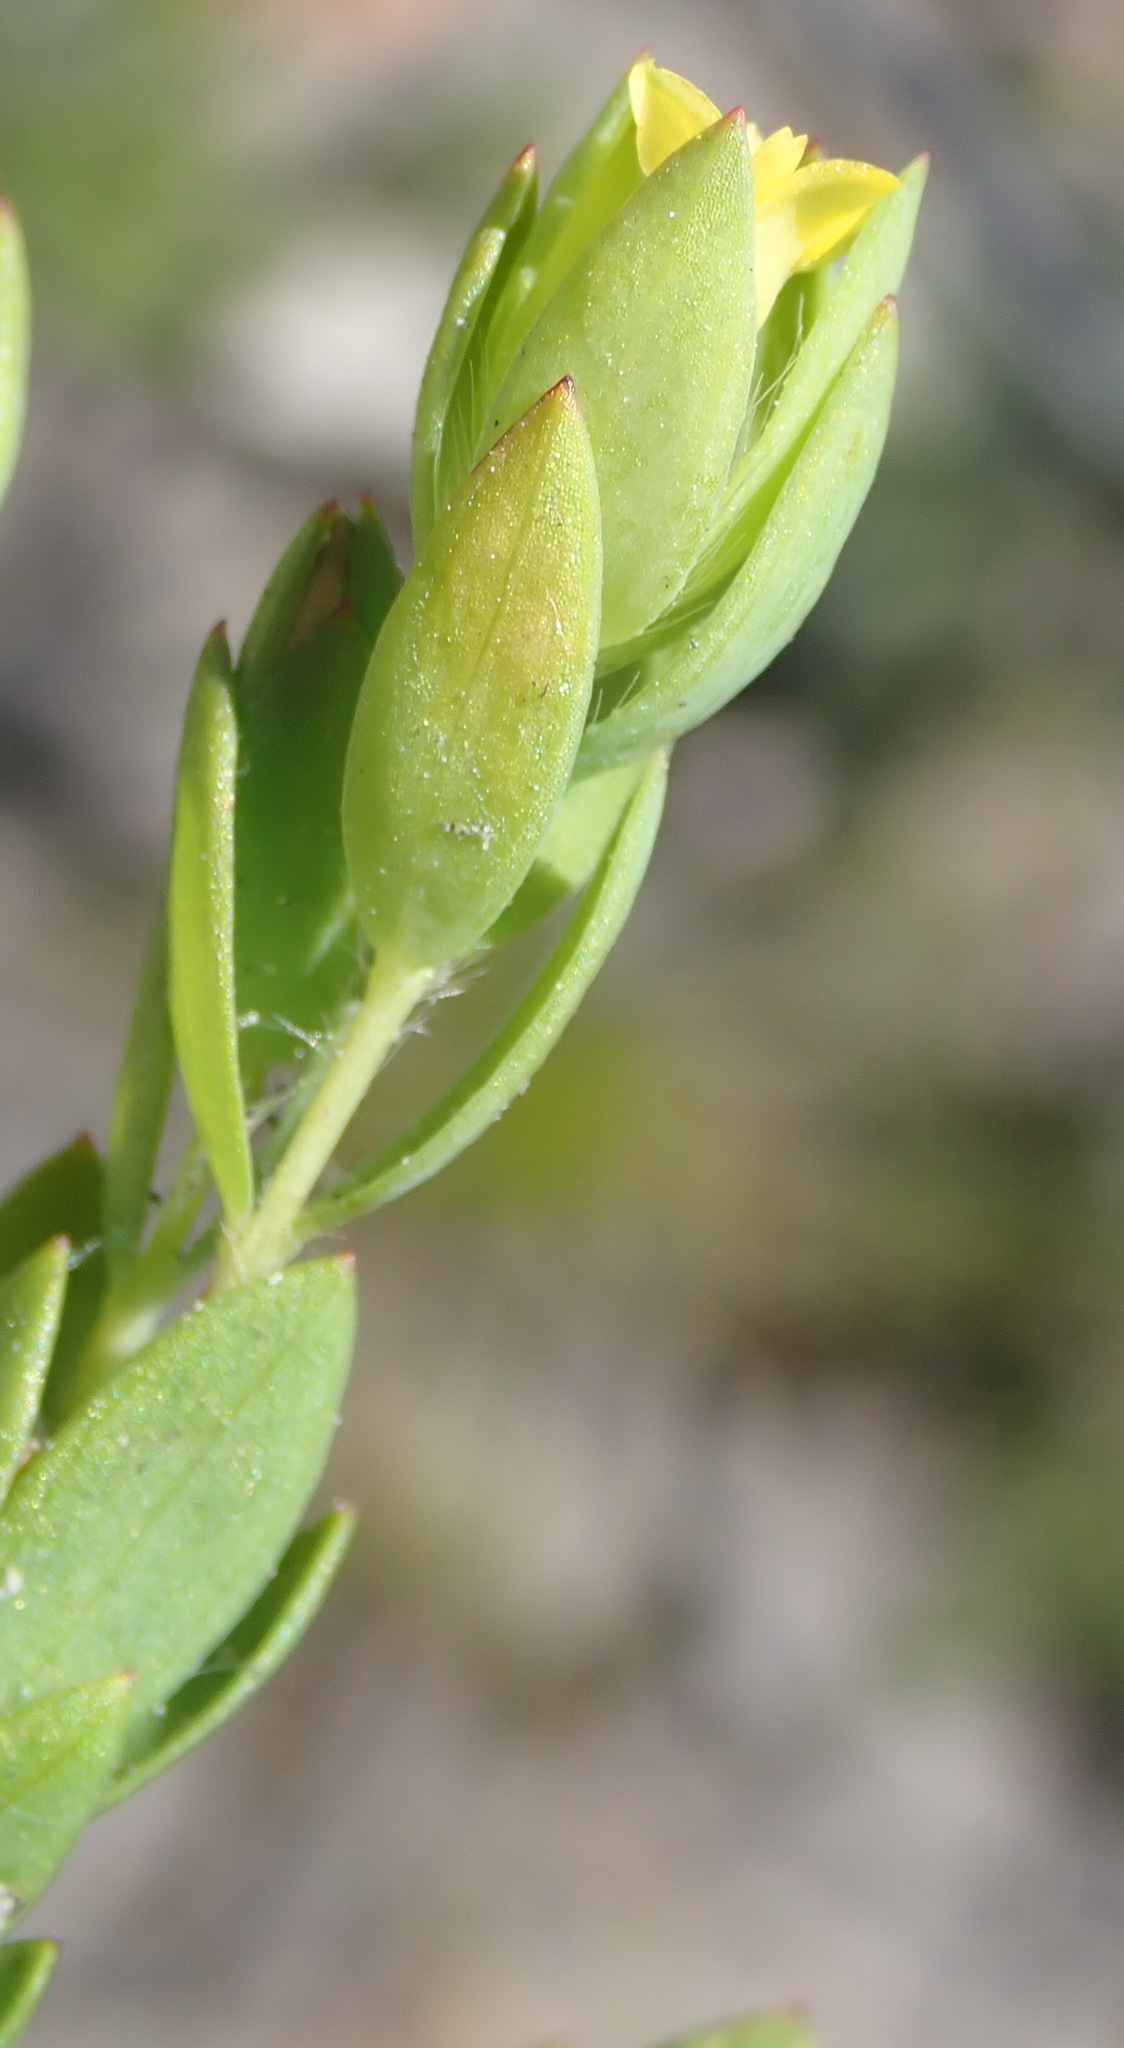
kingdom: Plantae
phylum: Tracheophyta
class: Magnoliopsida
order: Malvales
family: Thymelaeaceae
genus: Gnidia
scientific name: Gnidia juniperifolia
